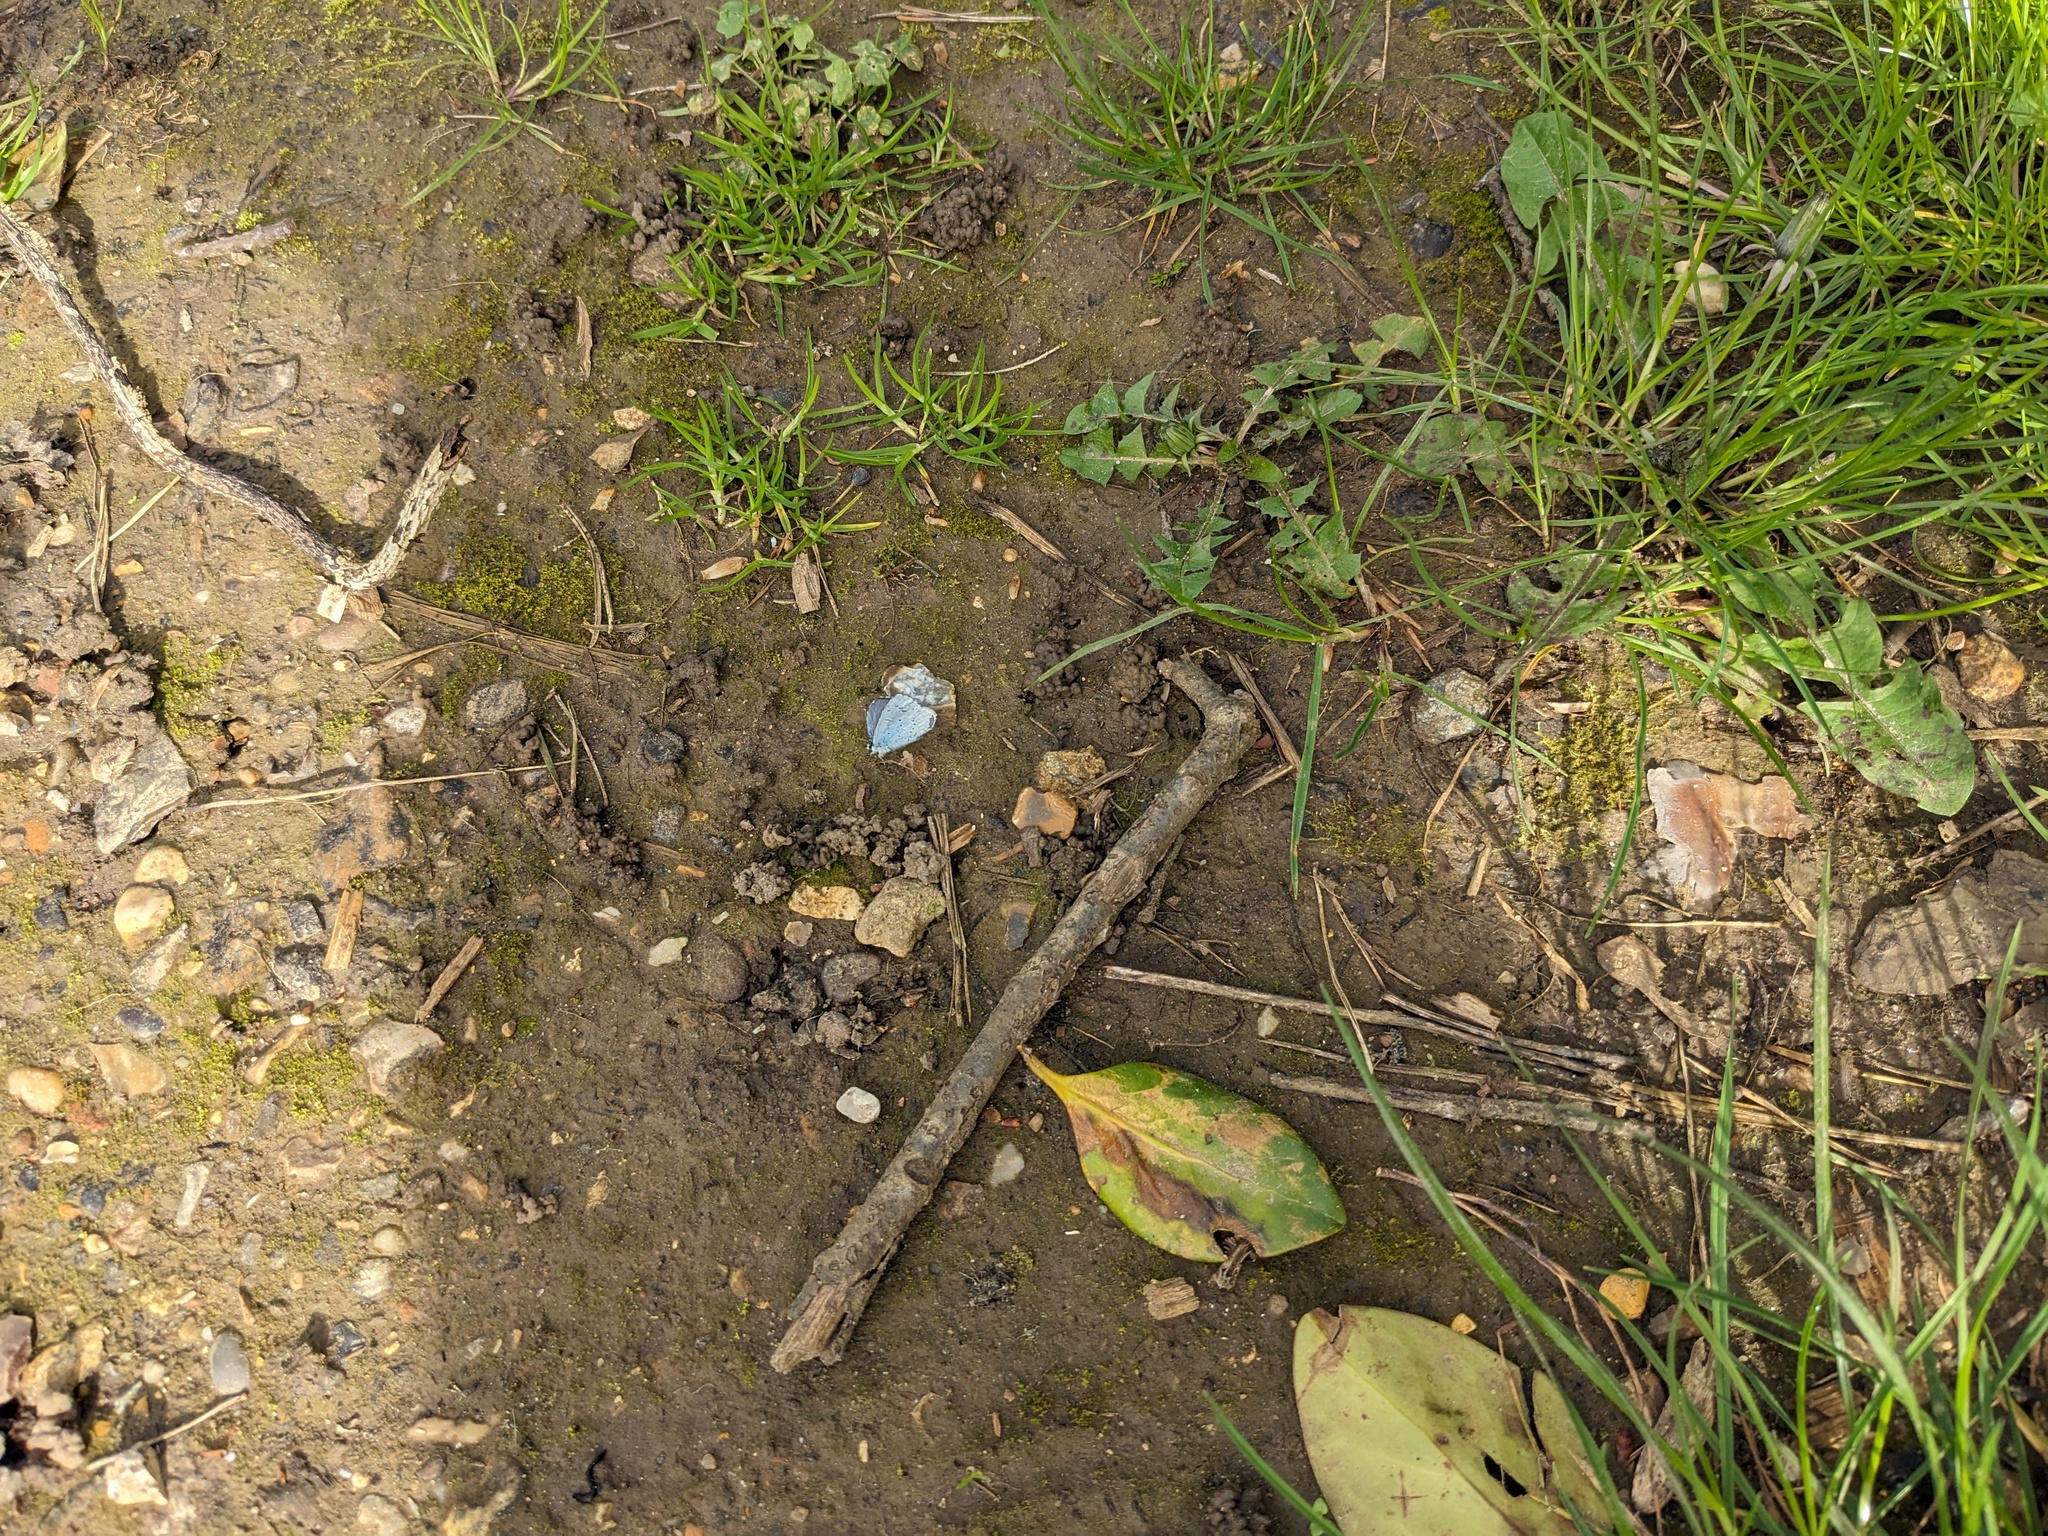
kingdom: Animalia
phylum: Arthropoda
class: Insecta
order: Lepidoptera
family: Lycaenidae
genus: Celastrina
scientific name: Celastrina argiolus
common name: Holly blue
